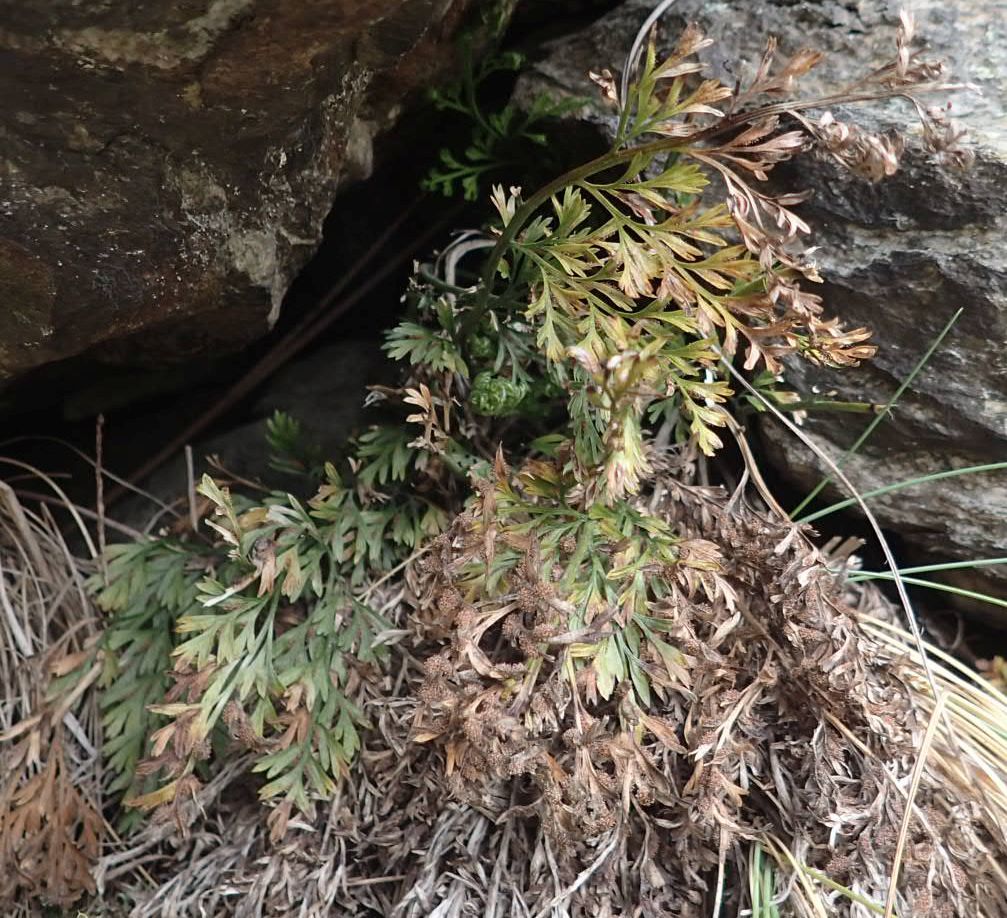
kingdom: Plantae
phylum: Tracheophyta
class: Polypodiopsida
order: Polypodiales
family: Aspleniaceae
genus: Asplenium
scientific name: Asplenium richardii
